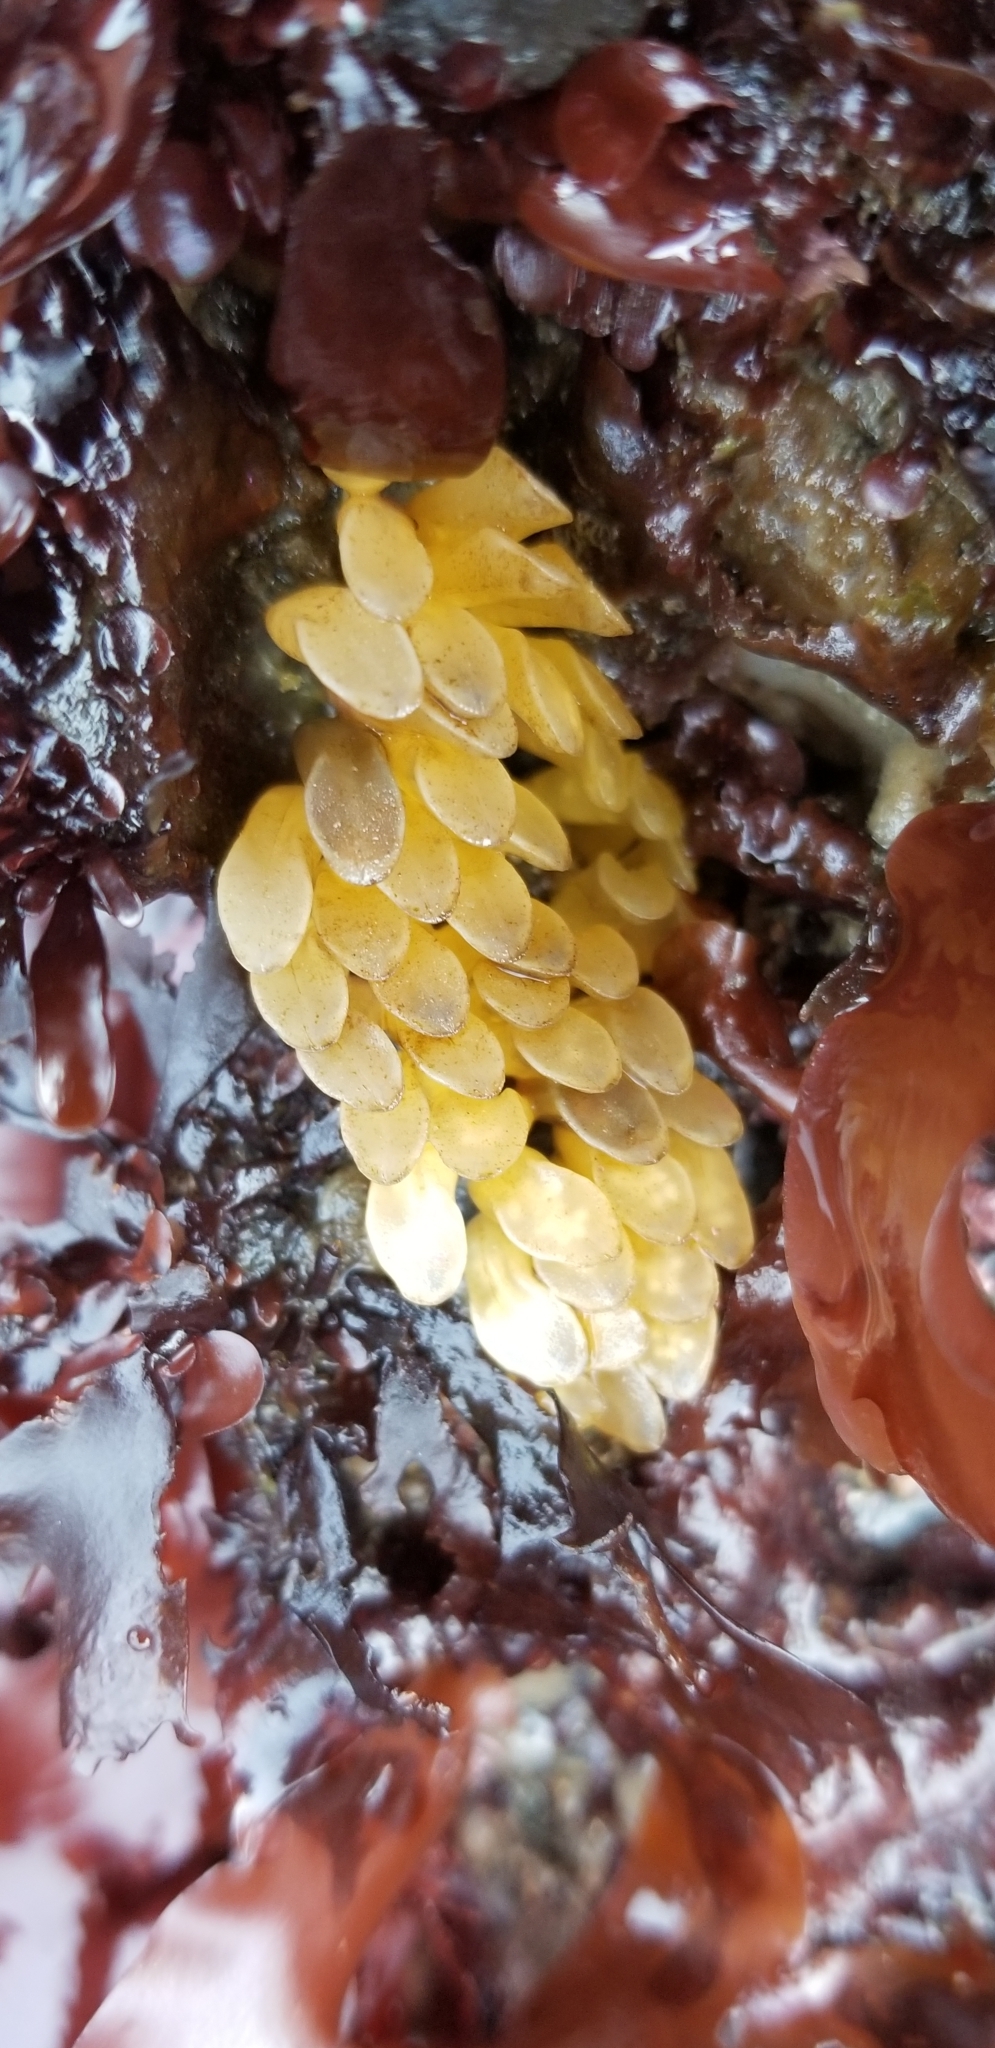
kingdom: Animalia
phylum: Mollusca
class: Gastropoda
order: Neogastropoda
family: Muricidae
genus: Ceratostoma
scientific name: Ceratostoma foliatum
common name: Foliate thorn purpura
